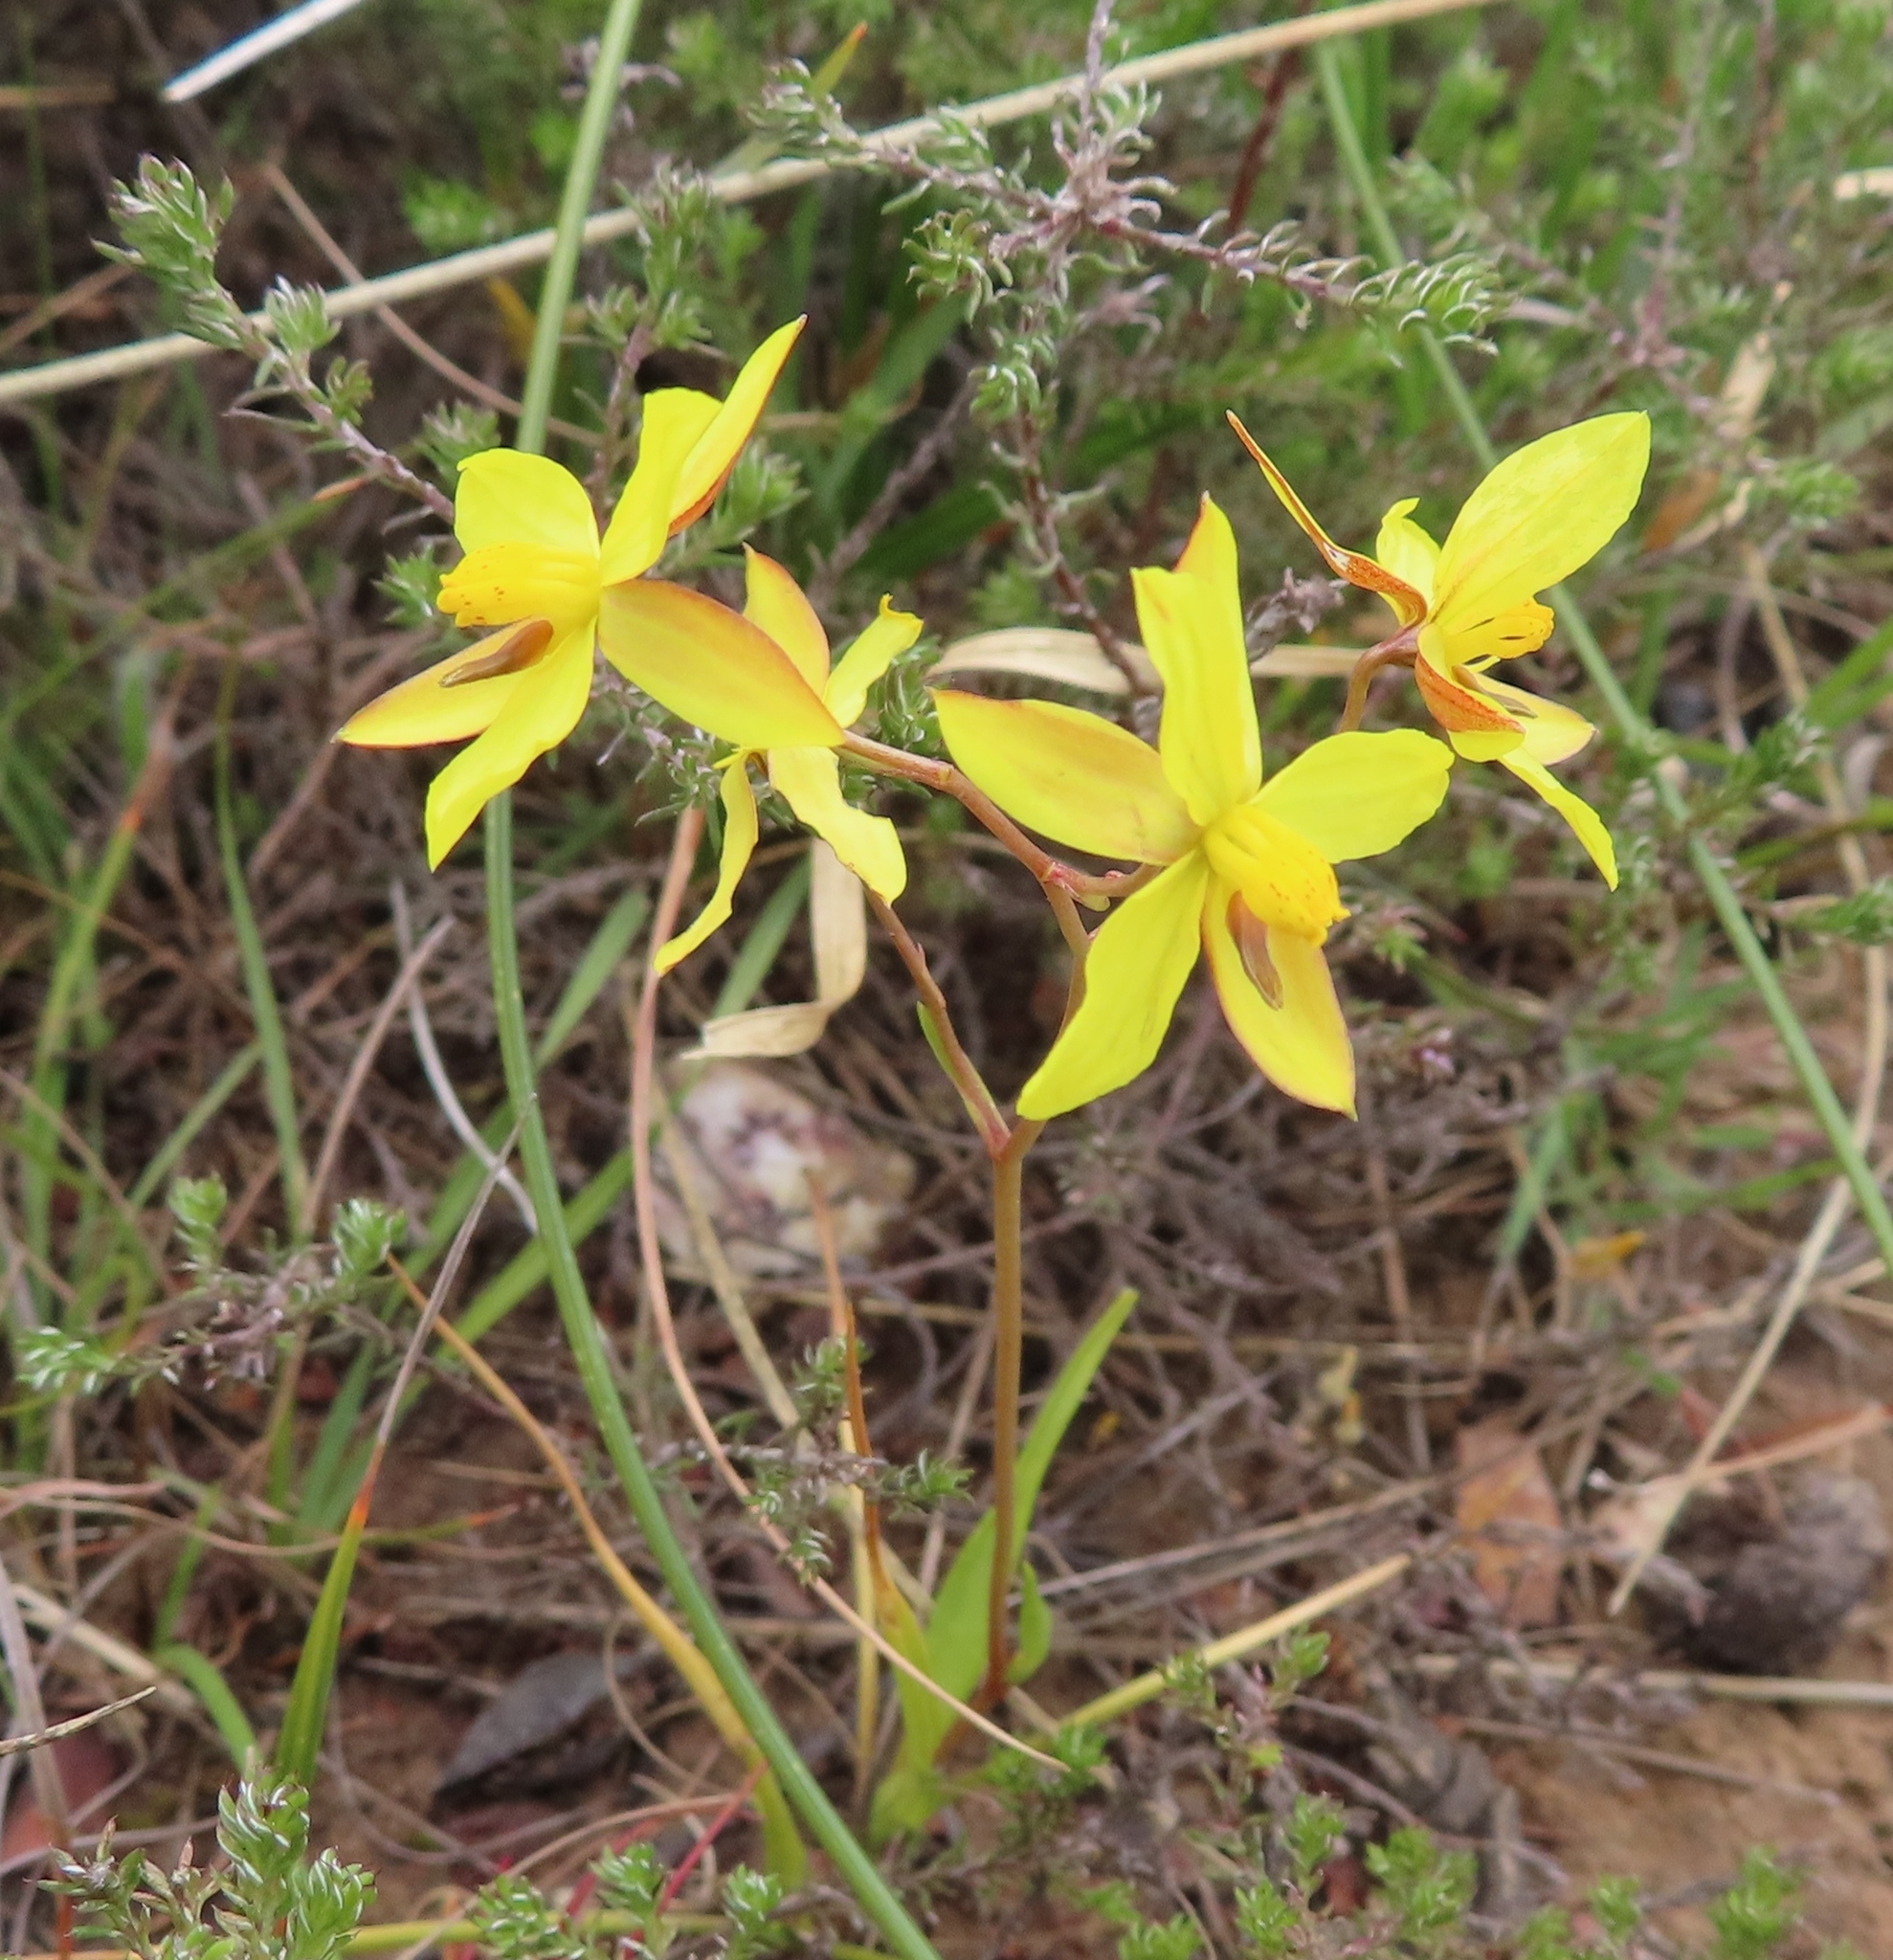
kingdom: Plantae
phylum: Tracheophyta
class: Liliopsida
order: Asparagales
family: Tecophilaeaceae
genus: Cyanella
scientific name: Cyanella lutea
